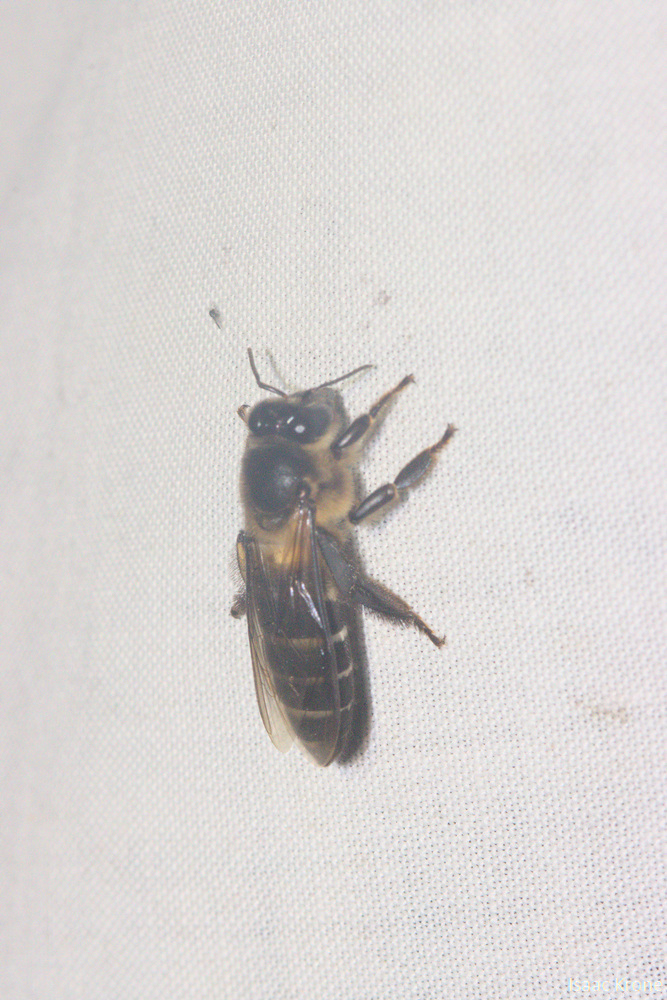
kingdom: Animalia
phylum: Arthropoda
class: Insecta
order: Hymenoptera
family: Apidae
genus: Apis
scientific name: Apis dorsata
